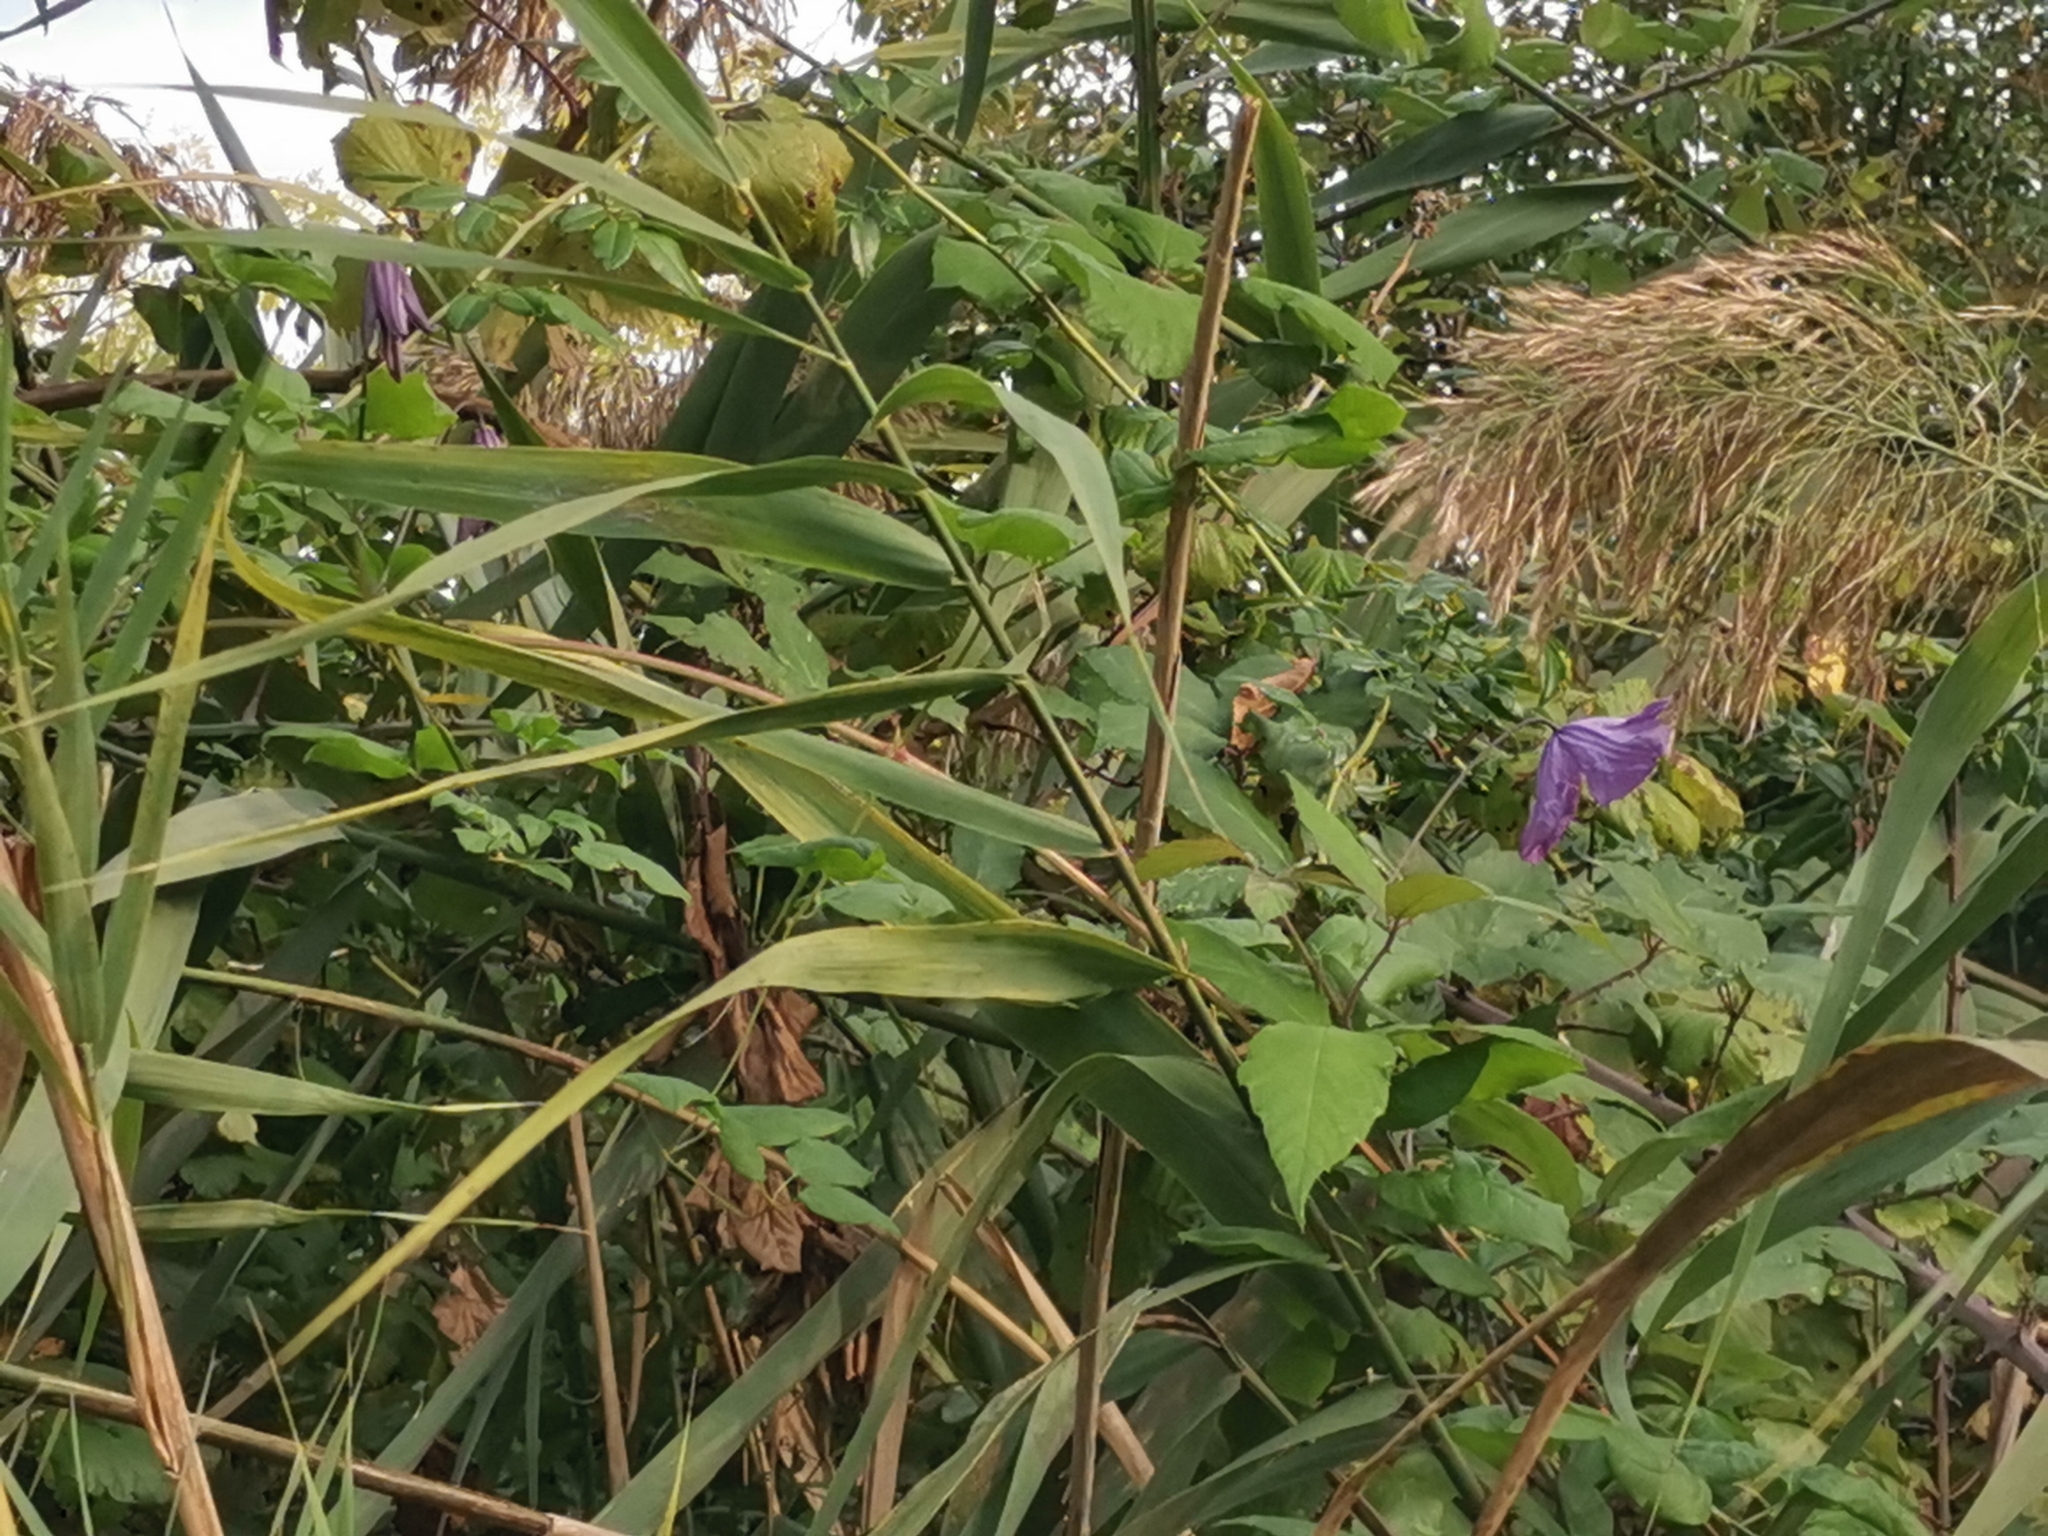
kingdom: Plantae
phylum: Tracheophyta
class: Magnoliopsida
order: Ranunculales
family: Ranunculaceae
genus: Clematis
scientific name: Clematis viticella
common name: Purple clematis
